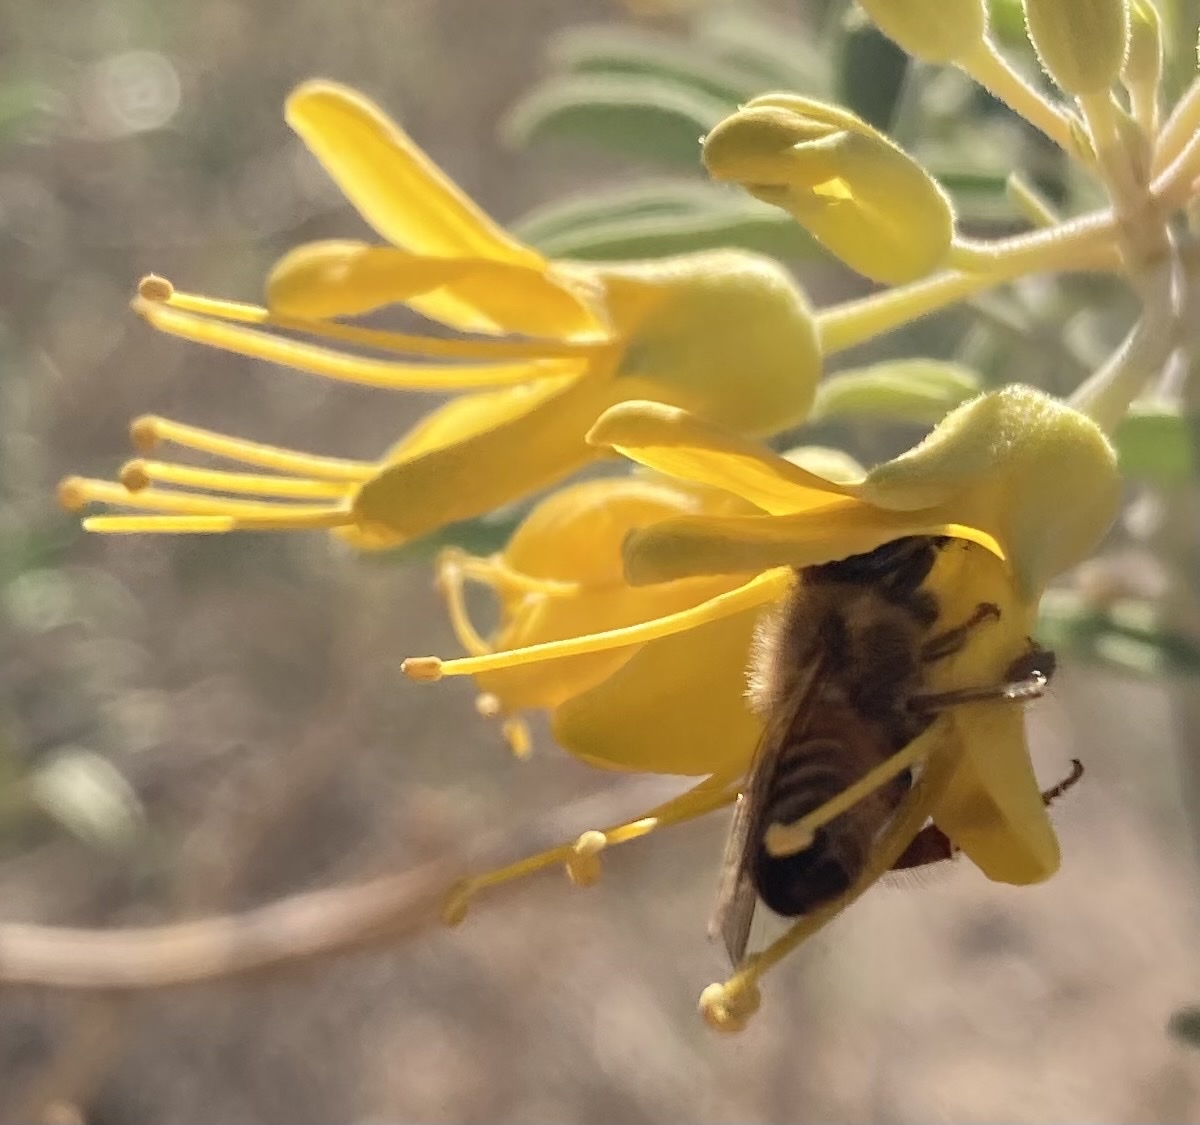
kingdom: Animalia
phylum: Arthropoda
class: Insecta
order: Hymenoptera
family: Apidae
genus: Apis
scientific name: Apis mellifera
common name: Honey bee
